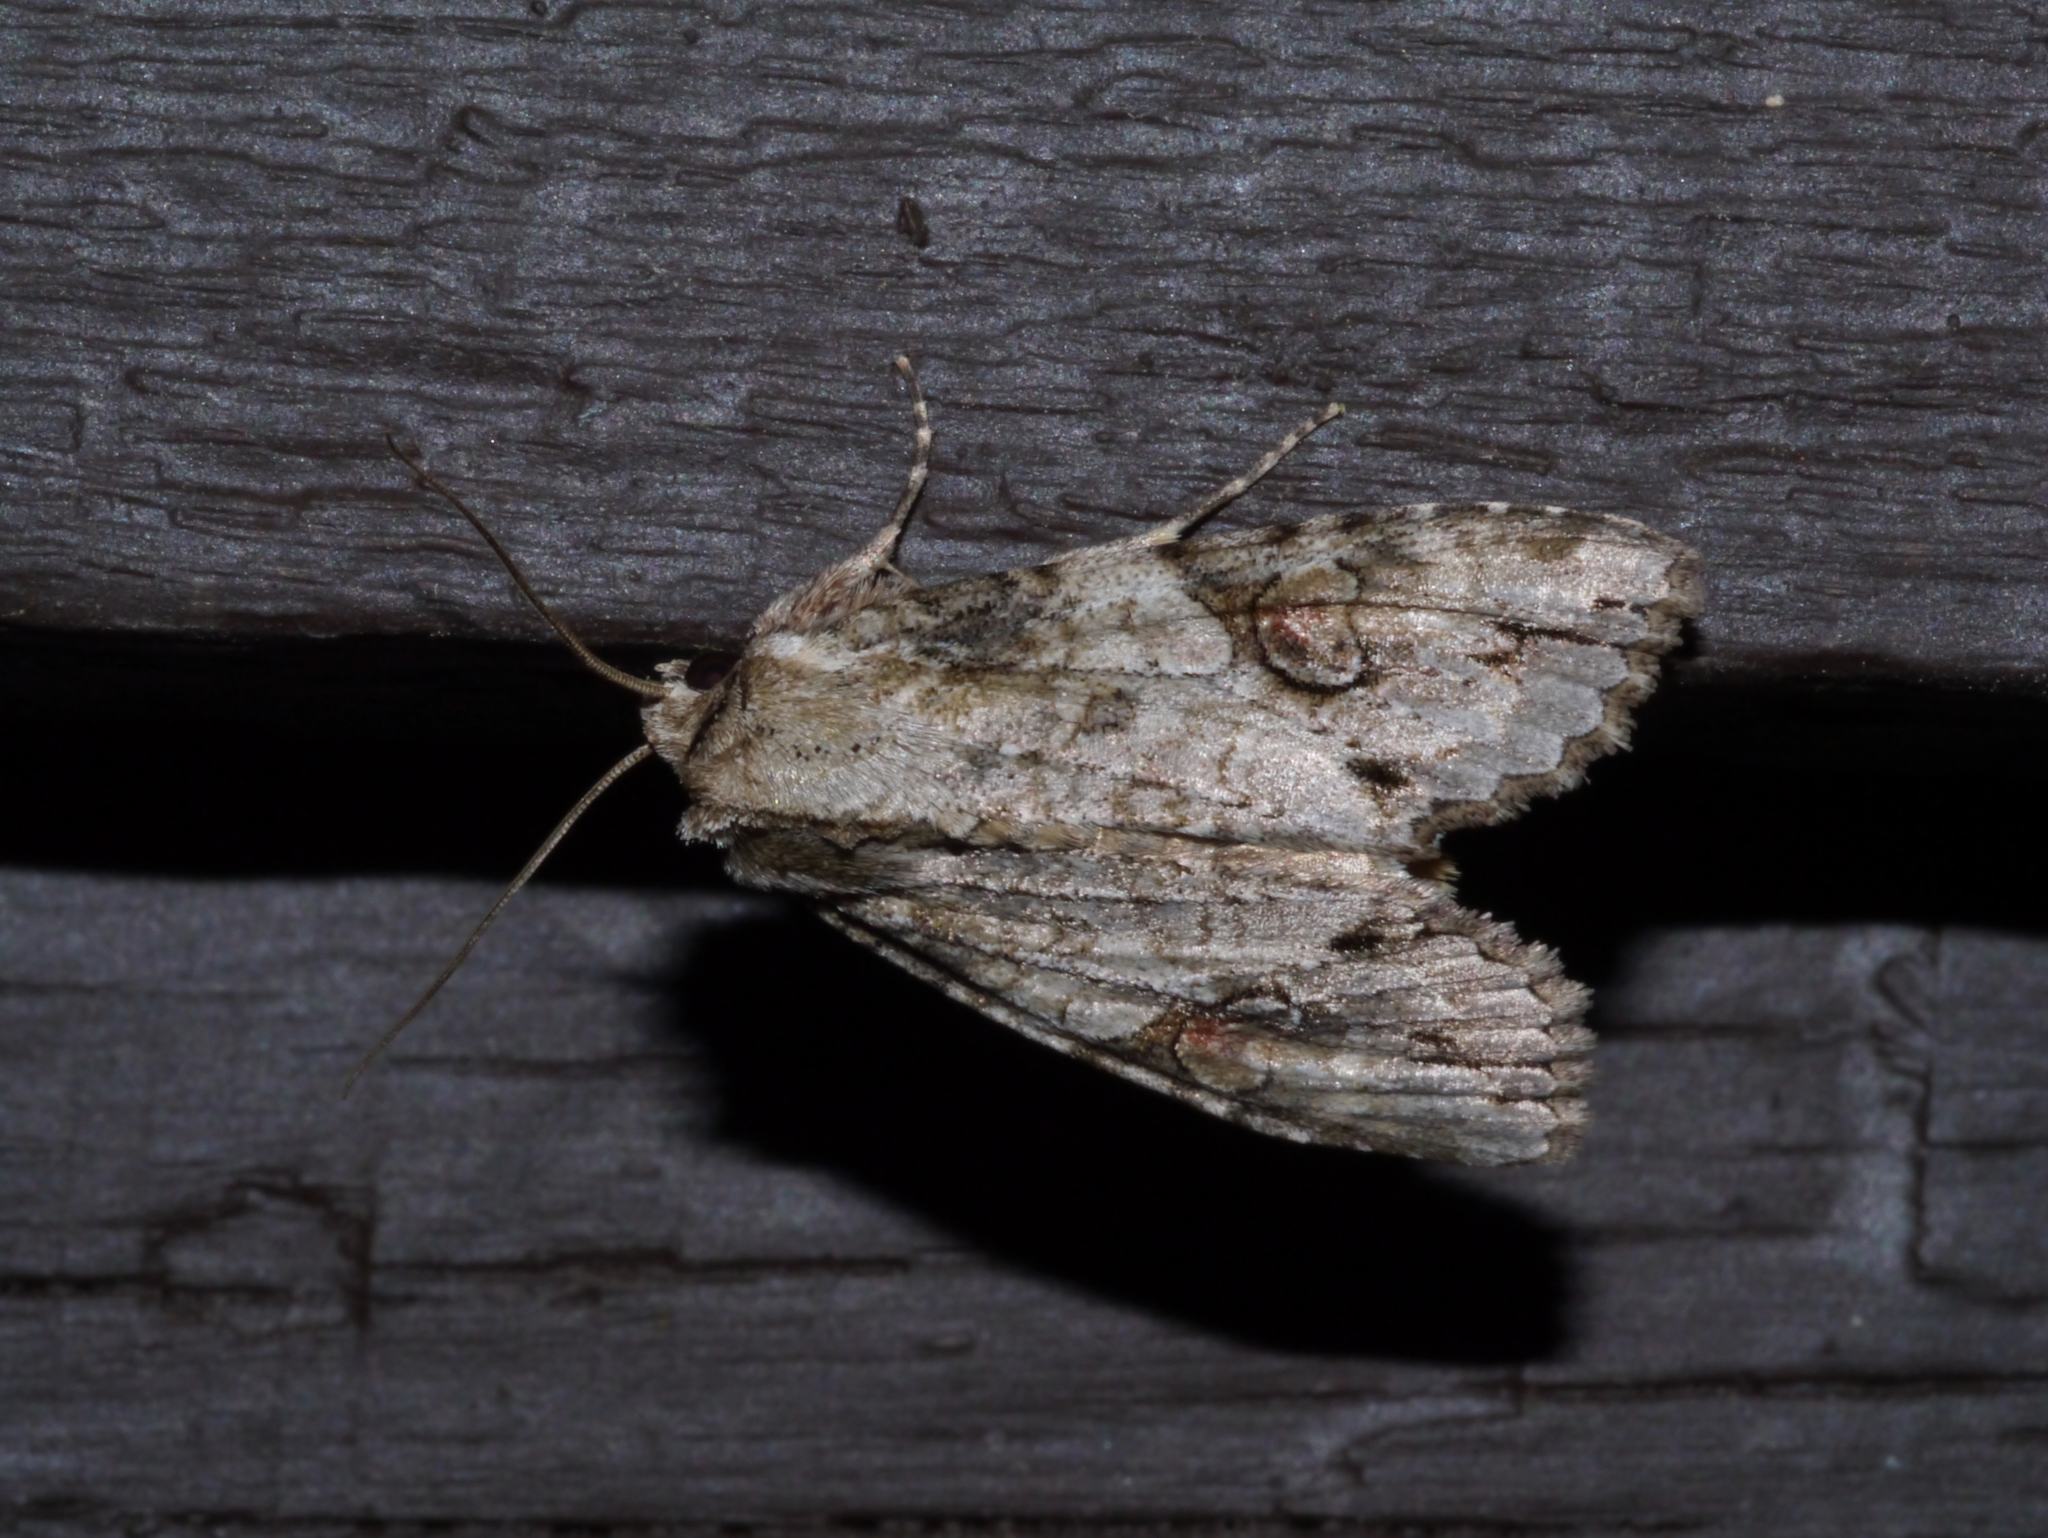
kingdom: Animalia
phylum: Arthropoda
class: Insecta
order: Lepidoptera
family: Noctuidae
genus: Achatia
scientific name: Achatia latex
